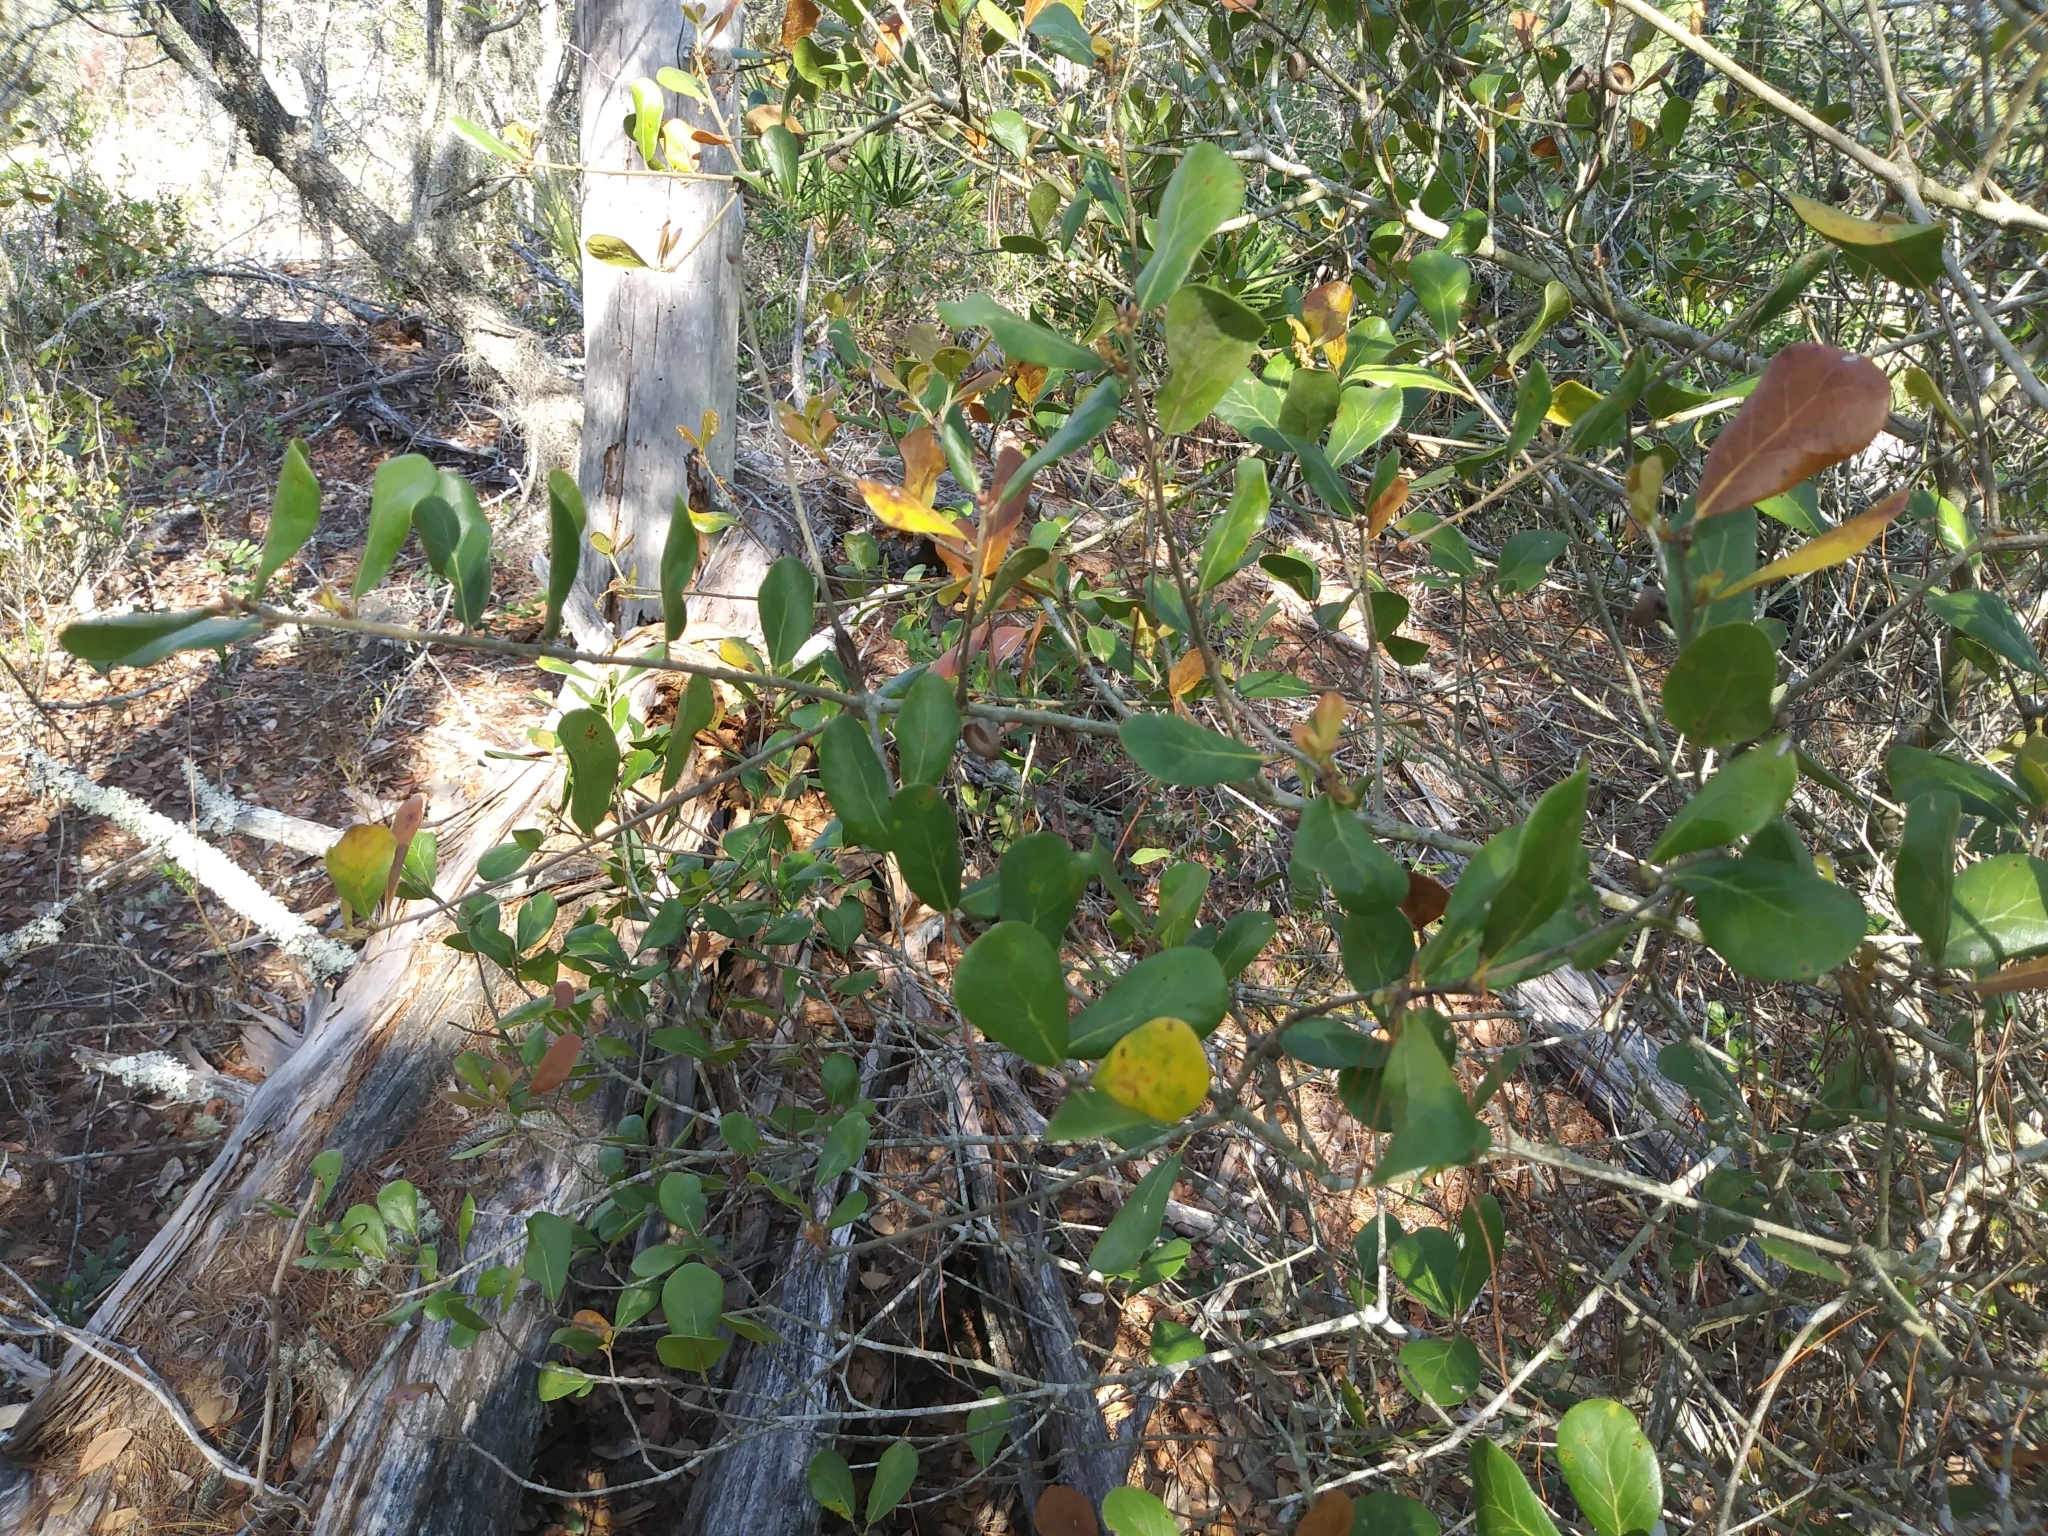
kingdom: Plantae
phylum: Tracheophyta
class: Magnoliopsida
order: Fagales
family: Fagaceae
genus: Quercus
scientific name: Quercus myrtifolia
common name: Myrtle oak
